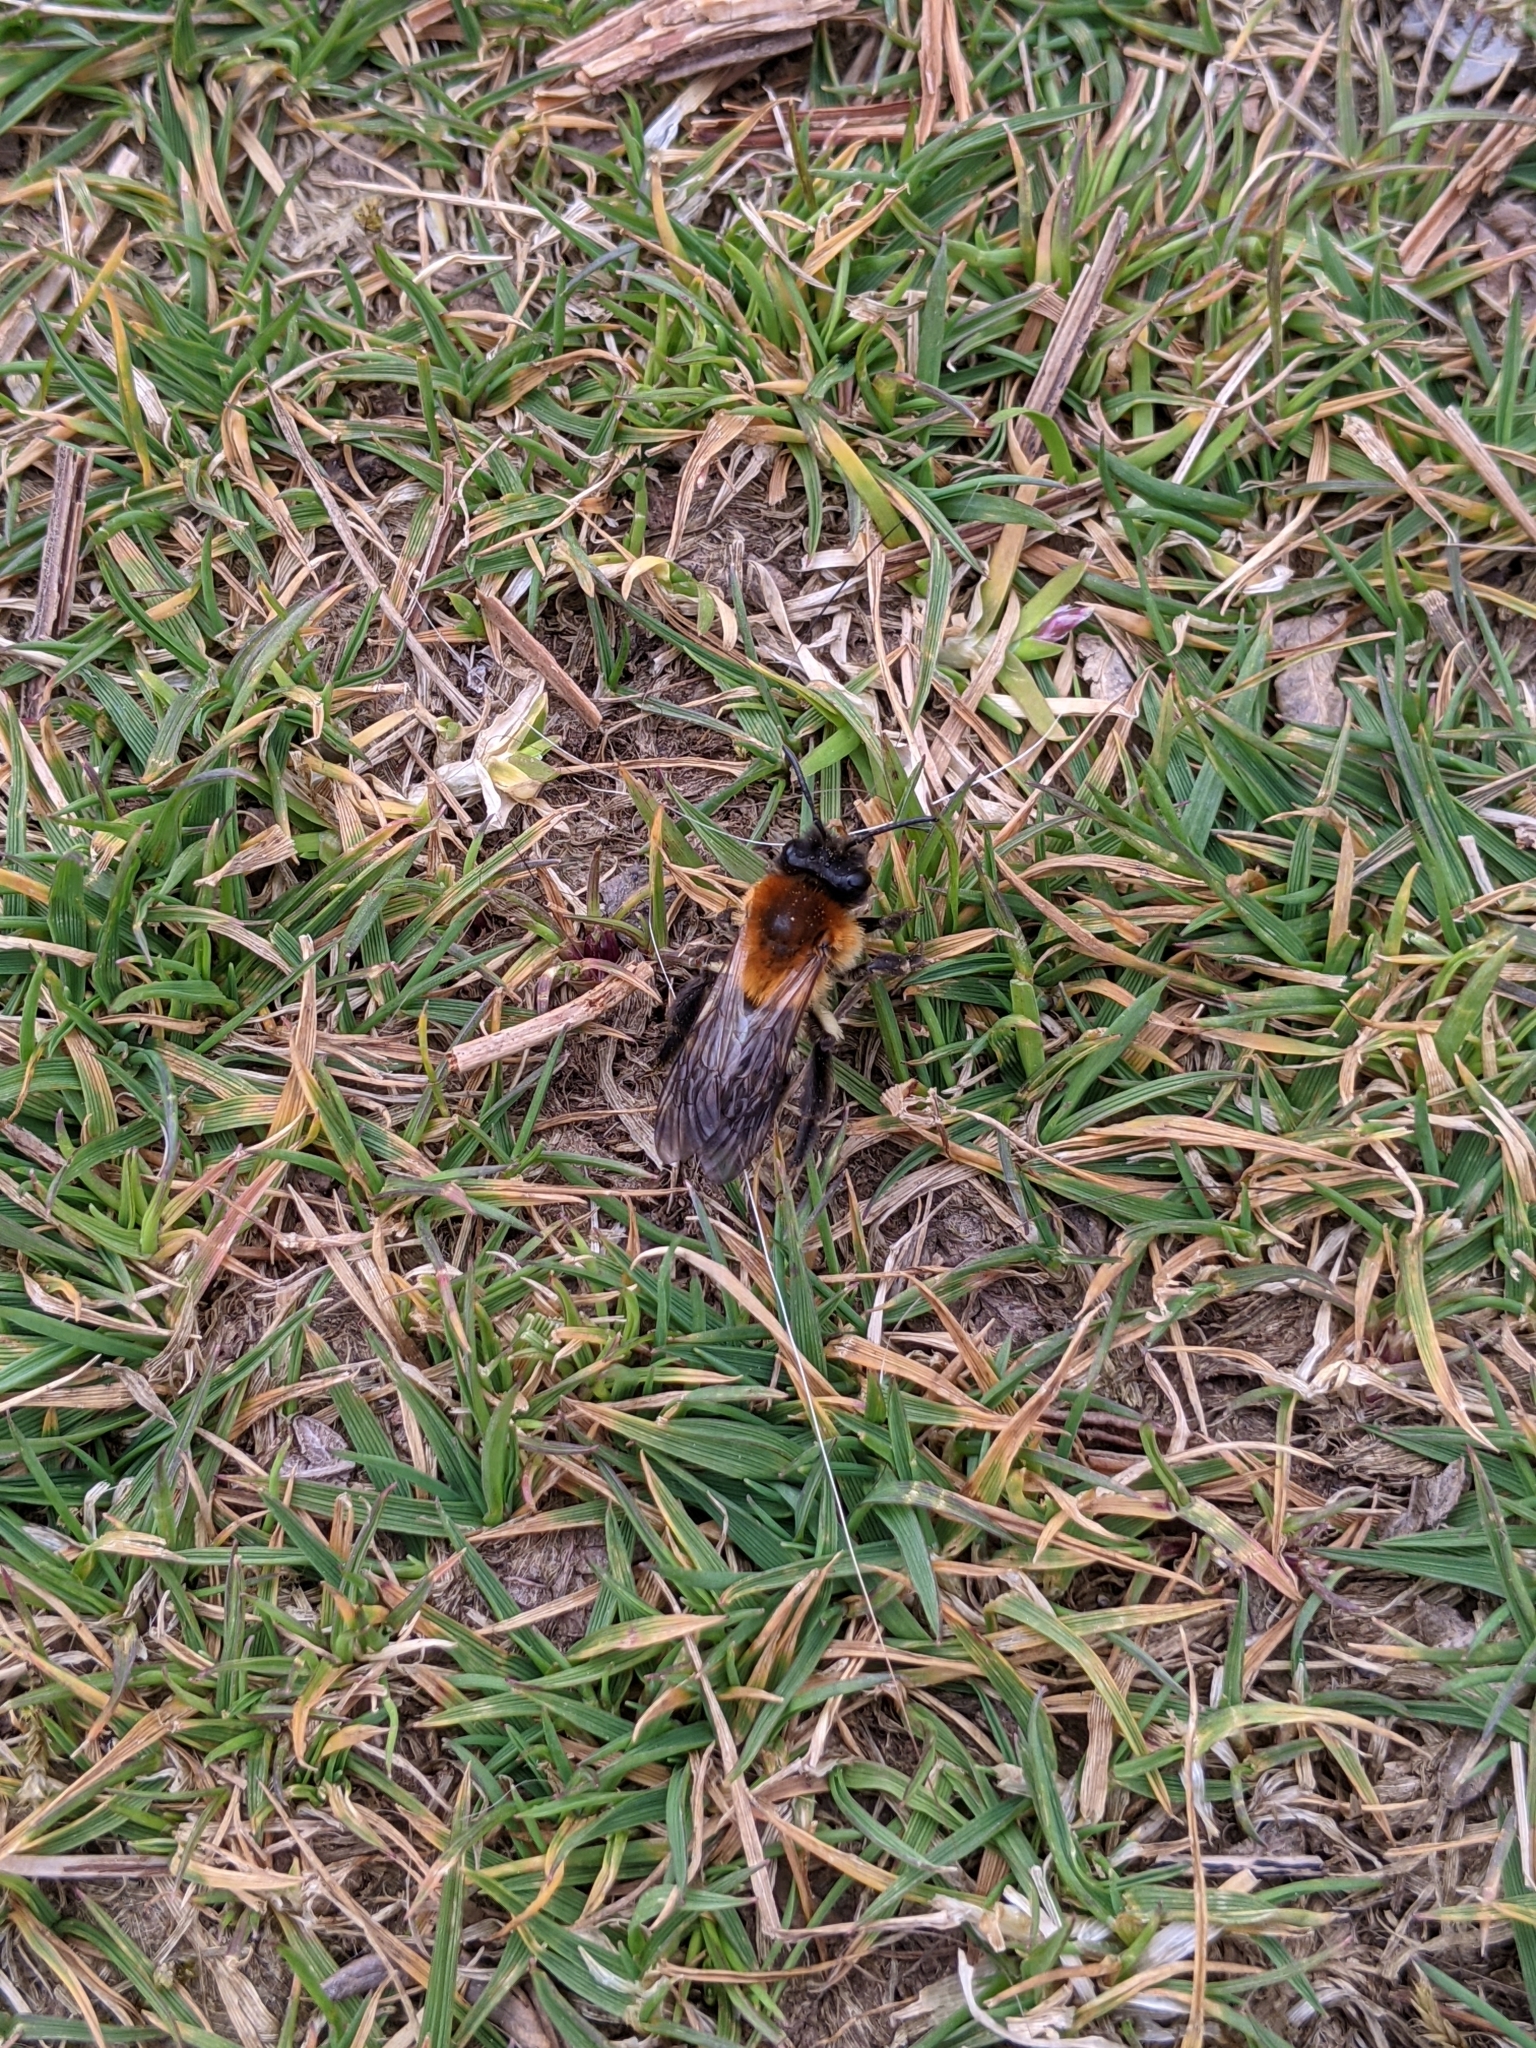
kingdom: Animalia
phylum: Arthropoda
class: Insecta
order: Hymenoptera
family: Andrenidae
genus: Andrena
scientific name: Andrena nitida
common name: Grey-patched mining bee
